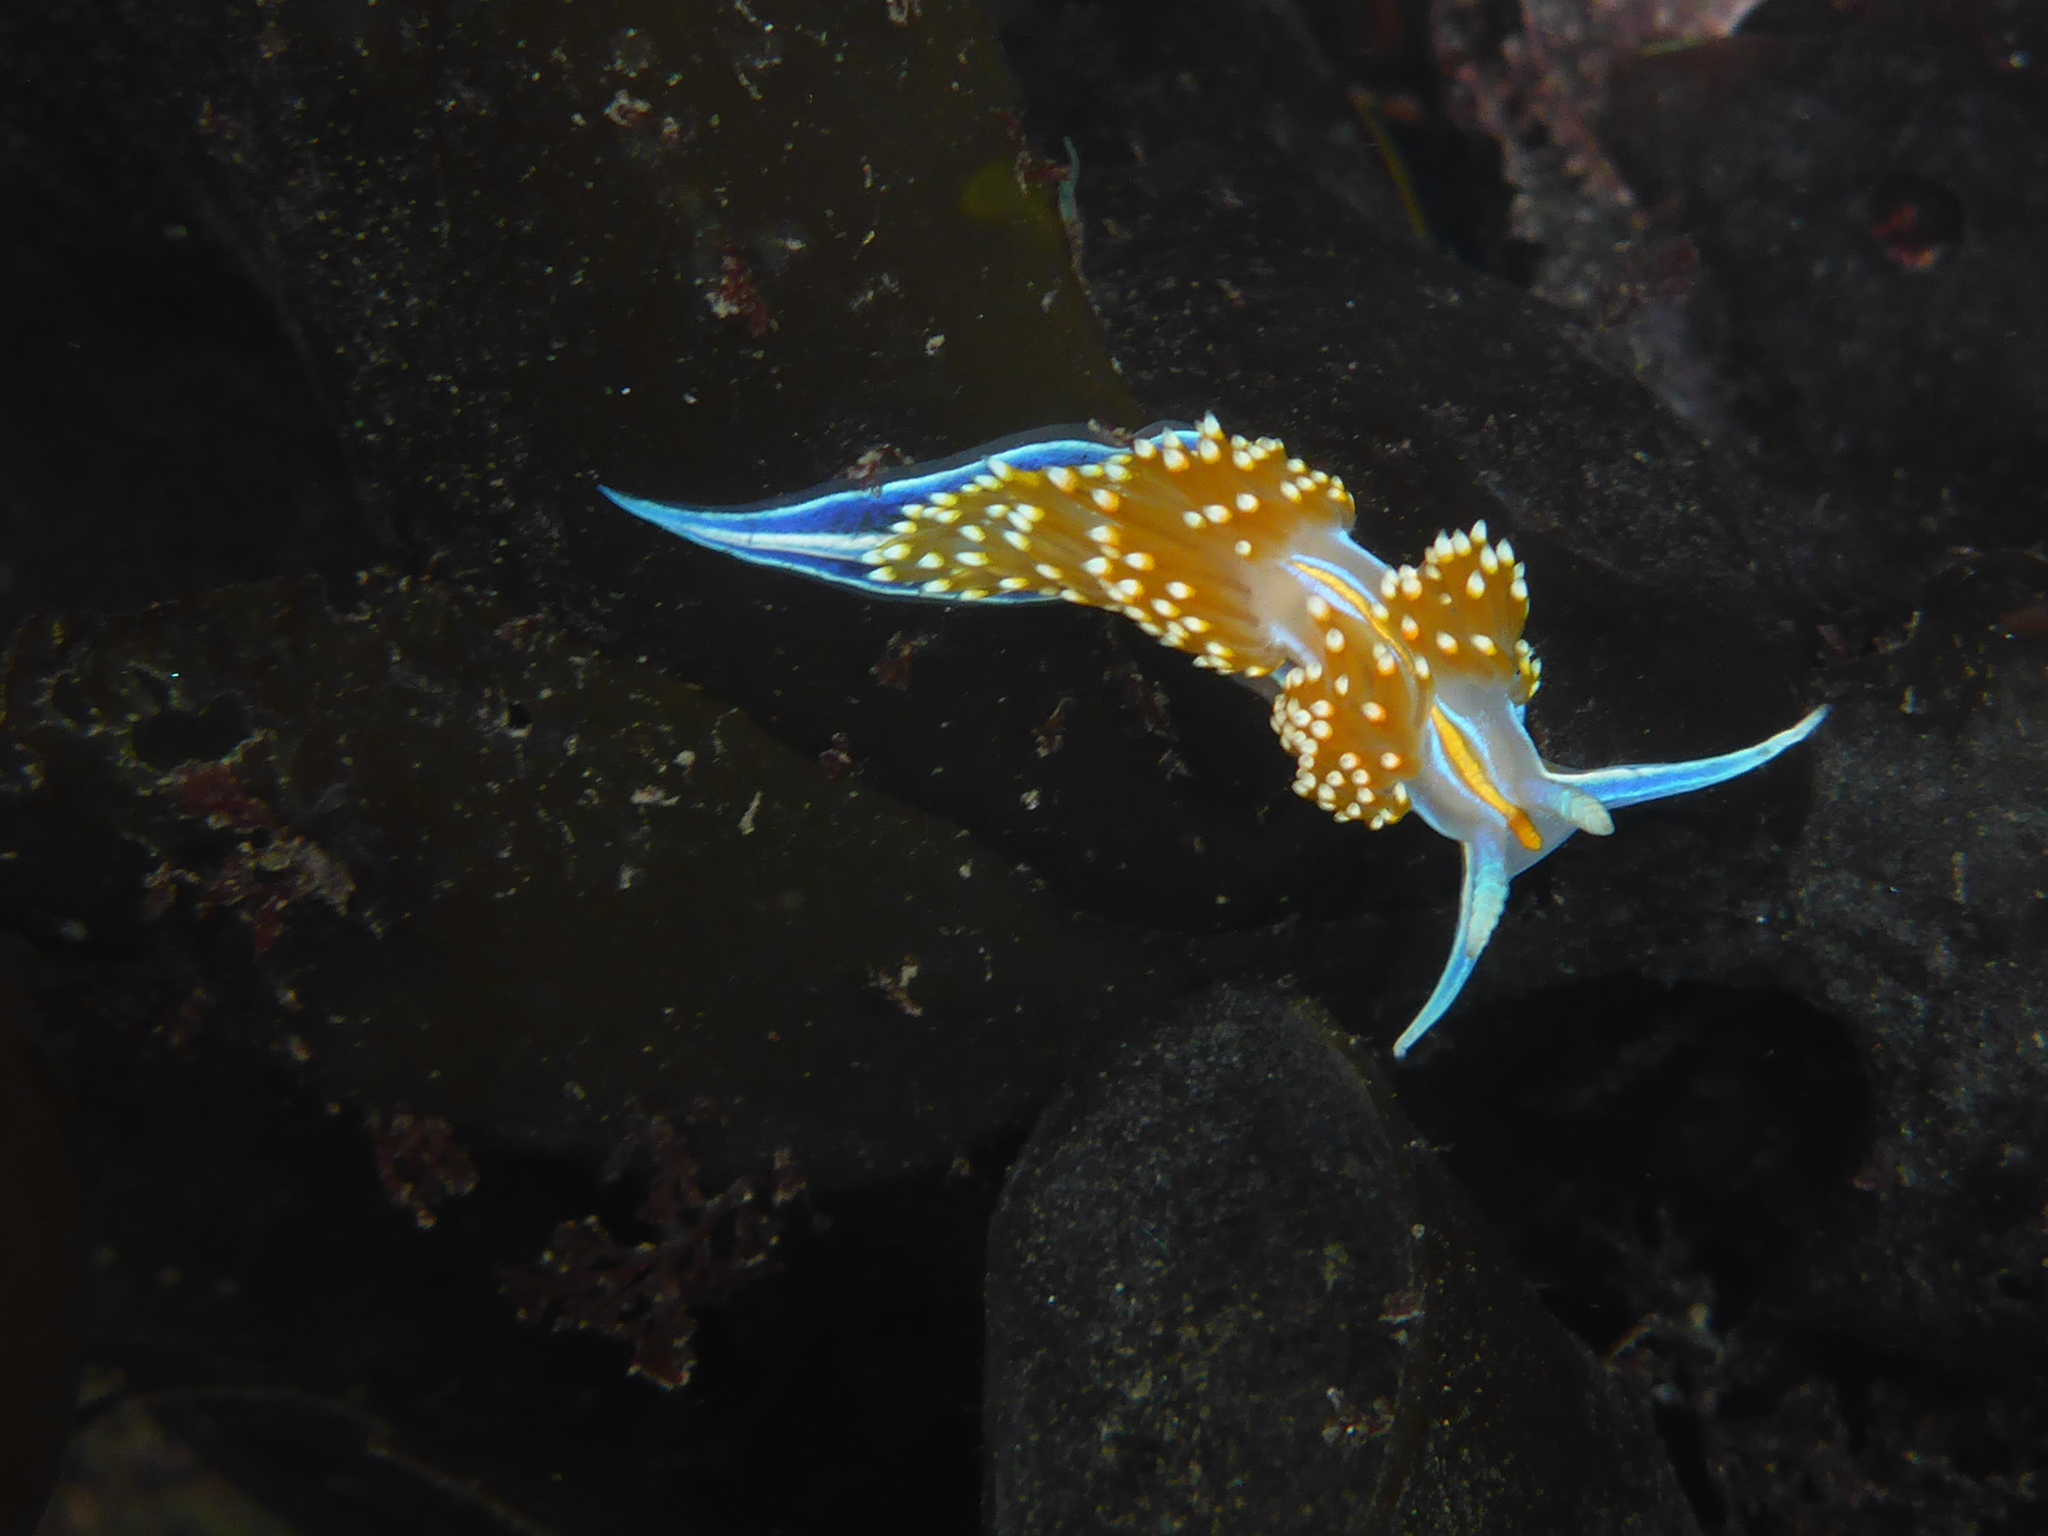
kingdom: Animalia
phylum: Mollusca
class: Gastropoda
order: Nudibranchia
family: Myrrhinidae
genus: Hermissenda
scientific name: Hermissenda opalescens
